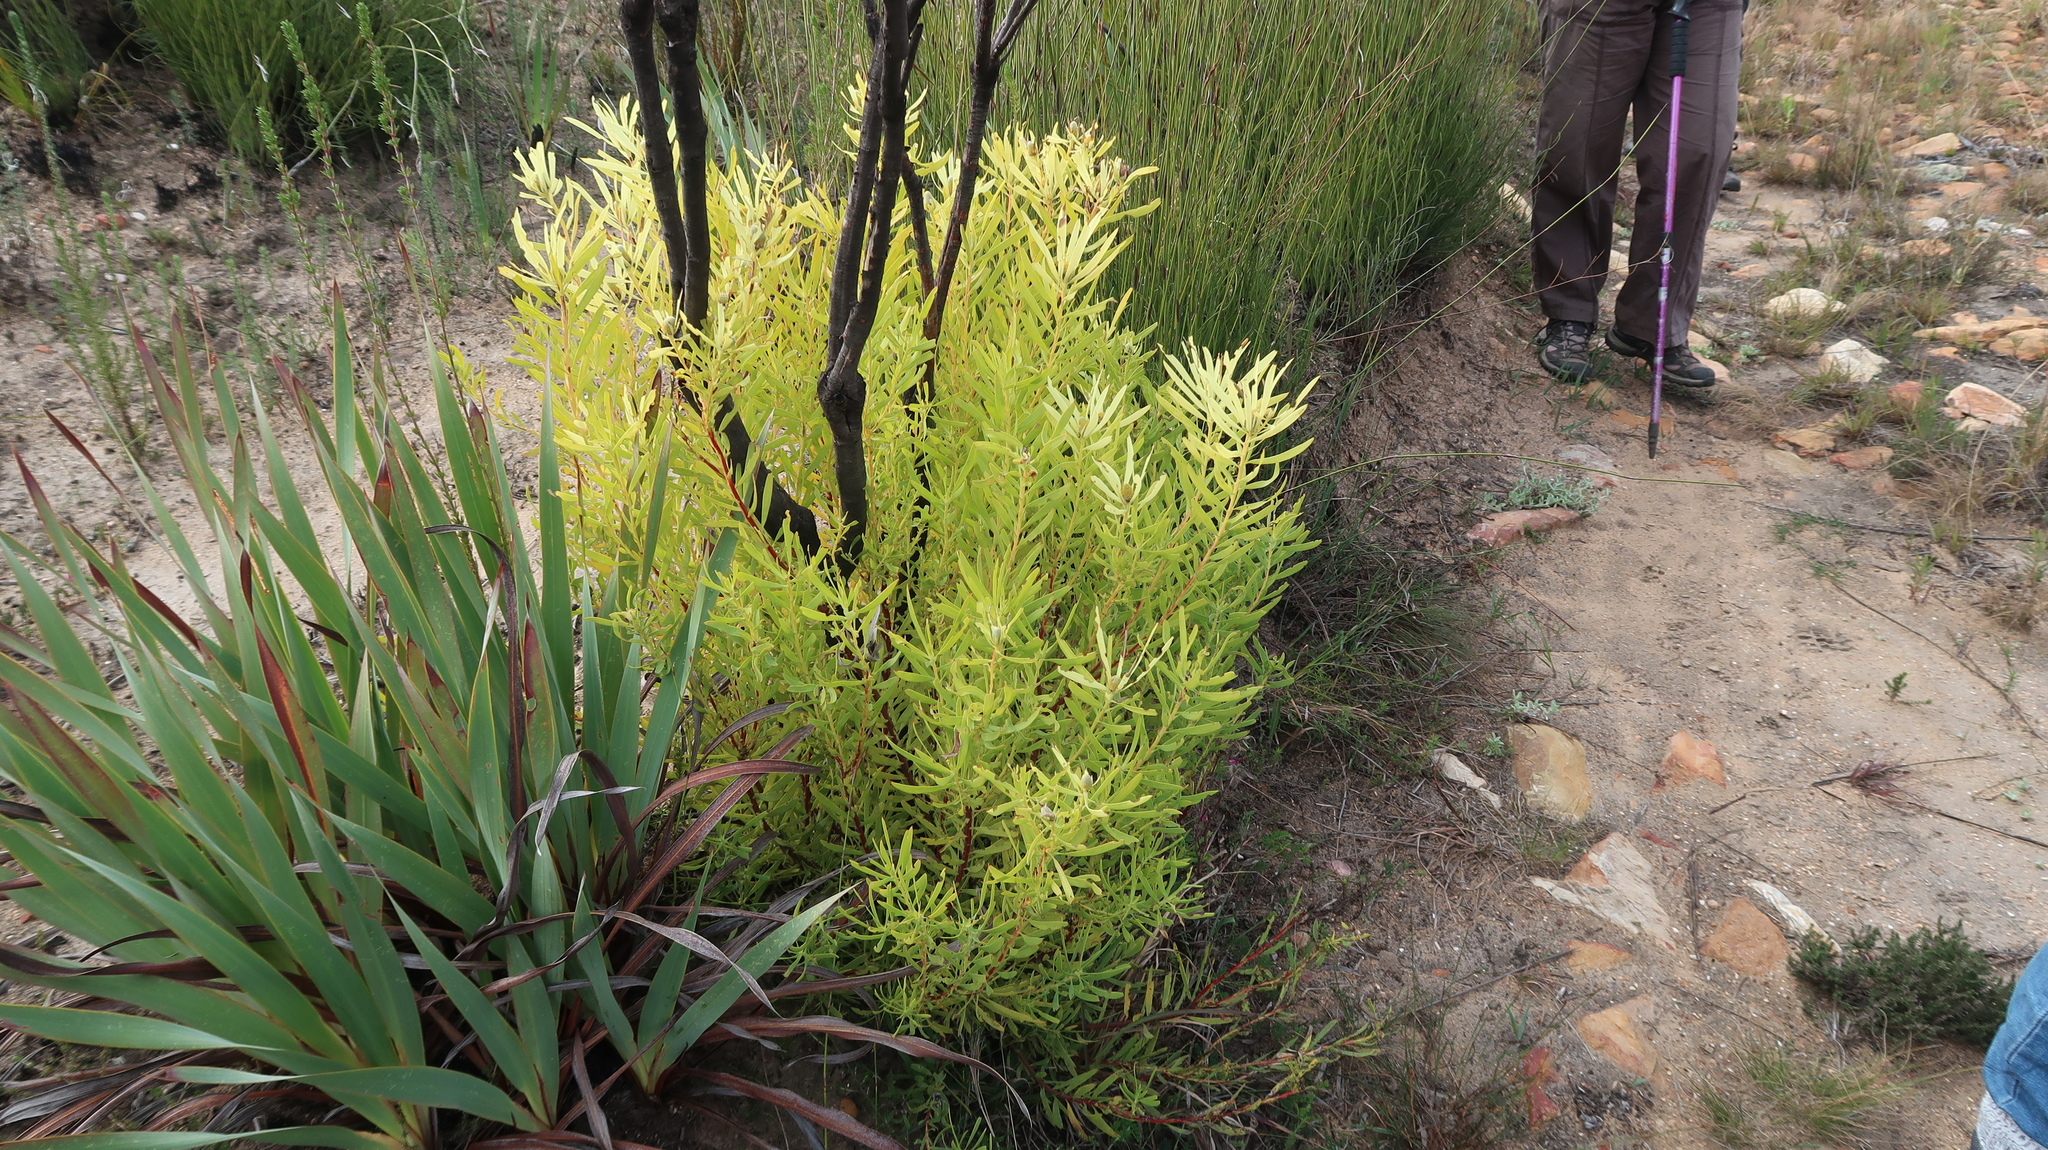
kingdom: Plantae
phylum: Tracheophyta
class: Magnoliopsida
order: Proteales
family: Proteaceae
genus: Leucadendron
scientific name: Leucadendron salignum
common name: Common sunshine conebush
